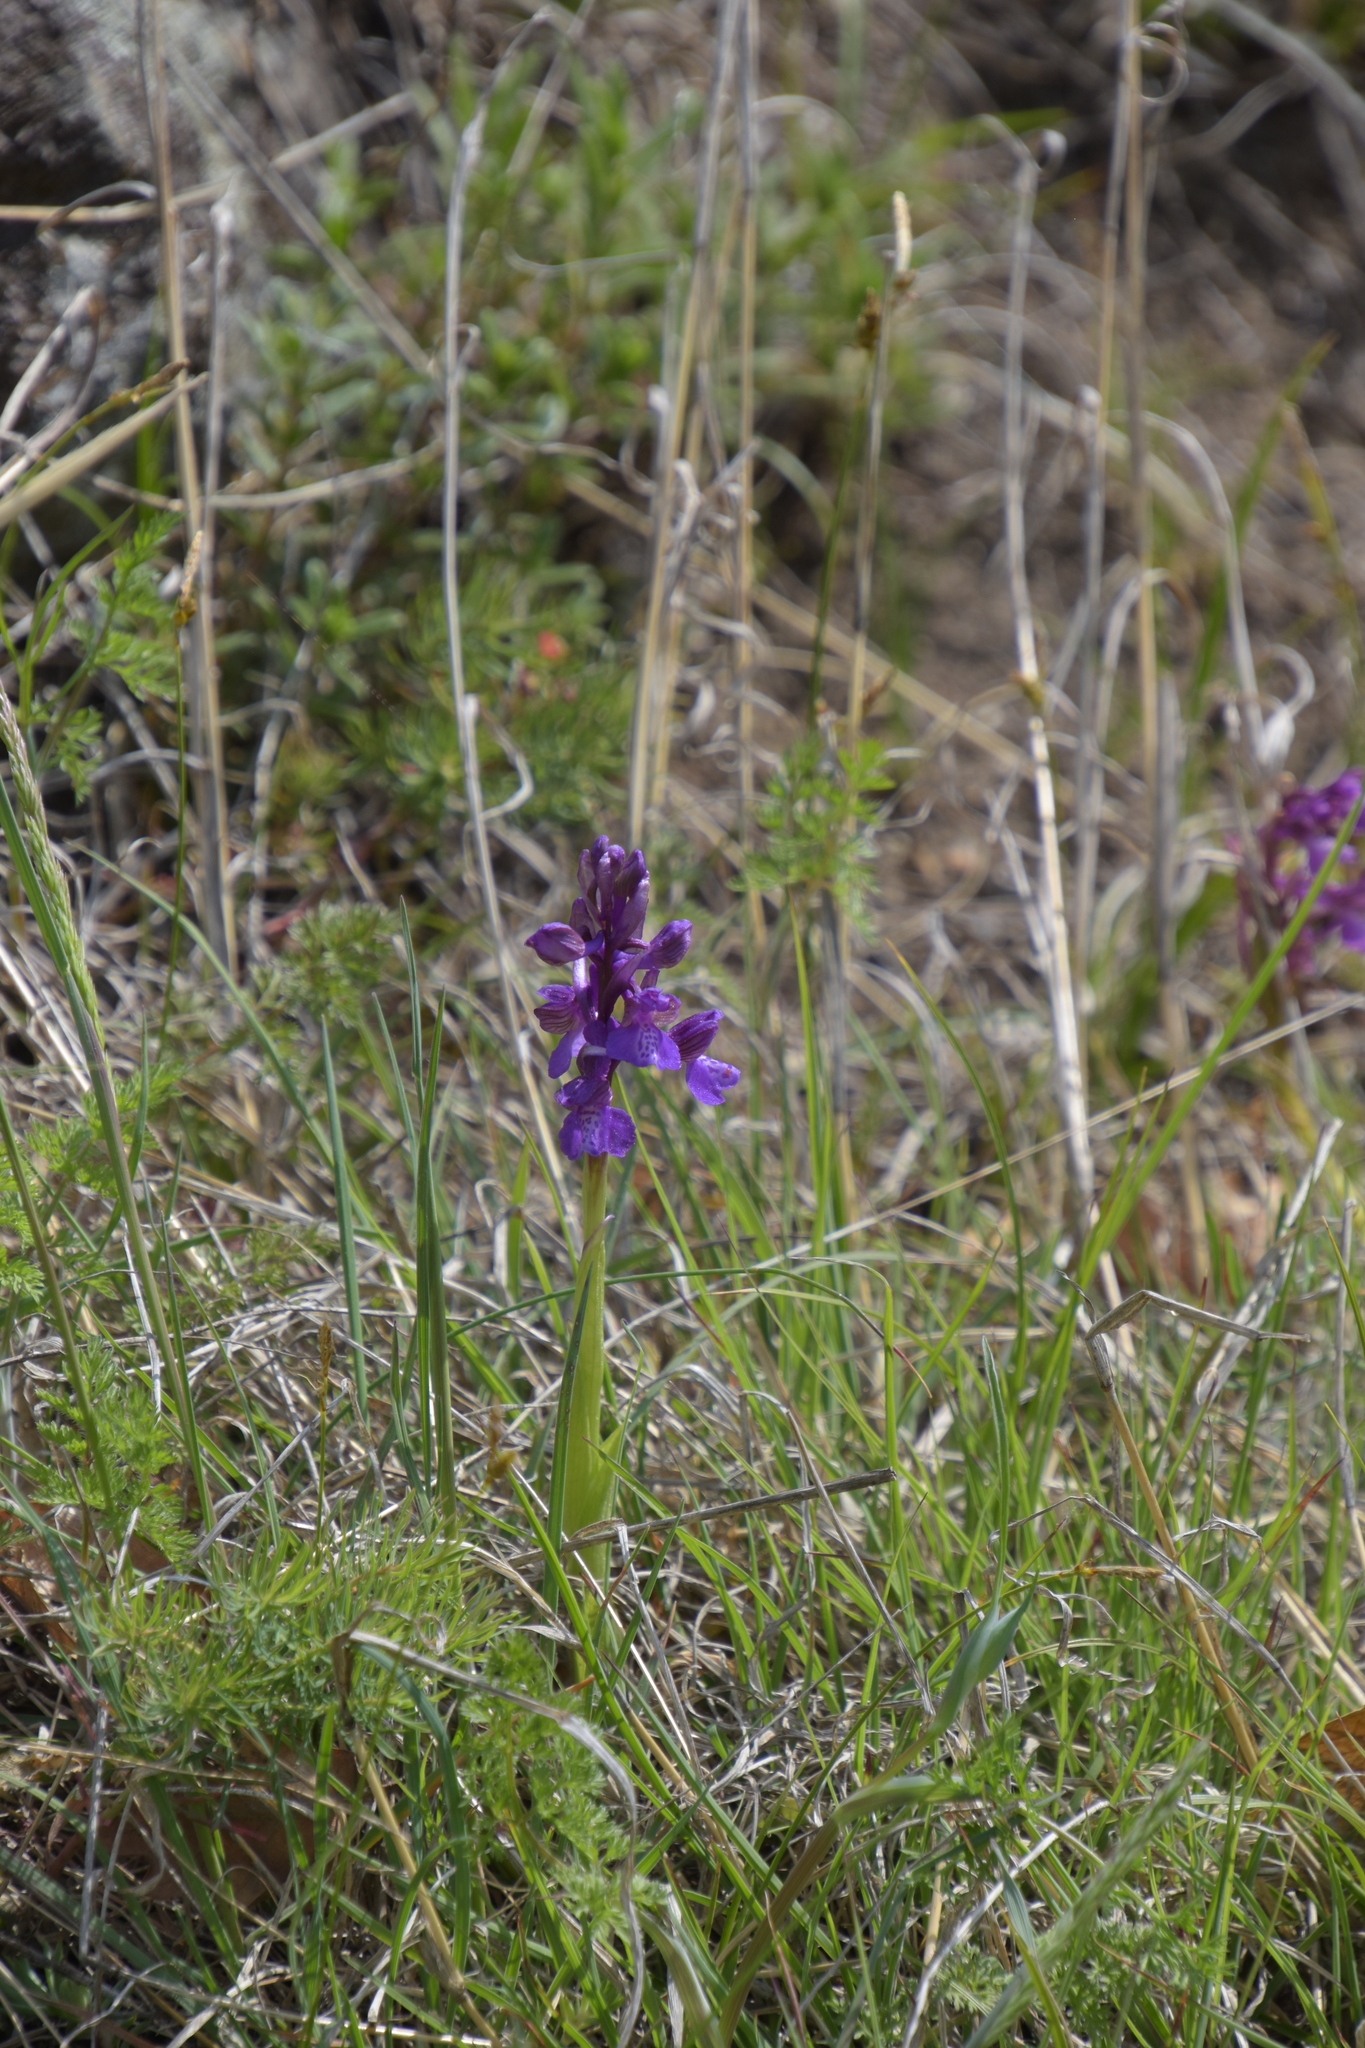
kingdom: Plantae
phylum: Tracheophyta
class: Liliopsida
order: Asparagales
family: Orchidaceae
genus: Anacamptis
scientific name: Anacamptis morio
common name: Green-winged orchid
